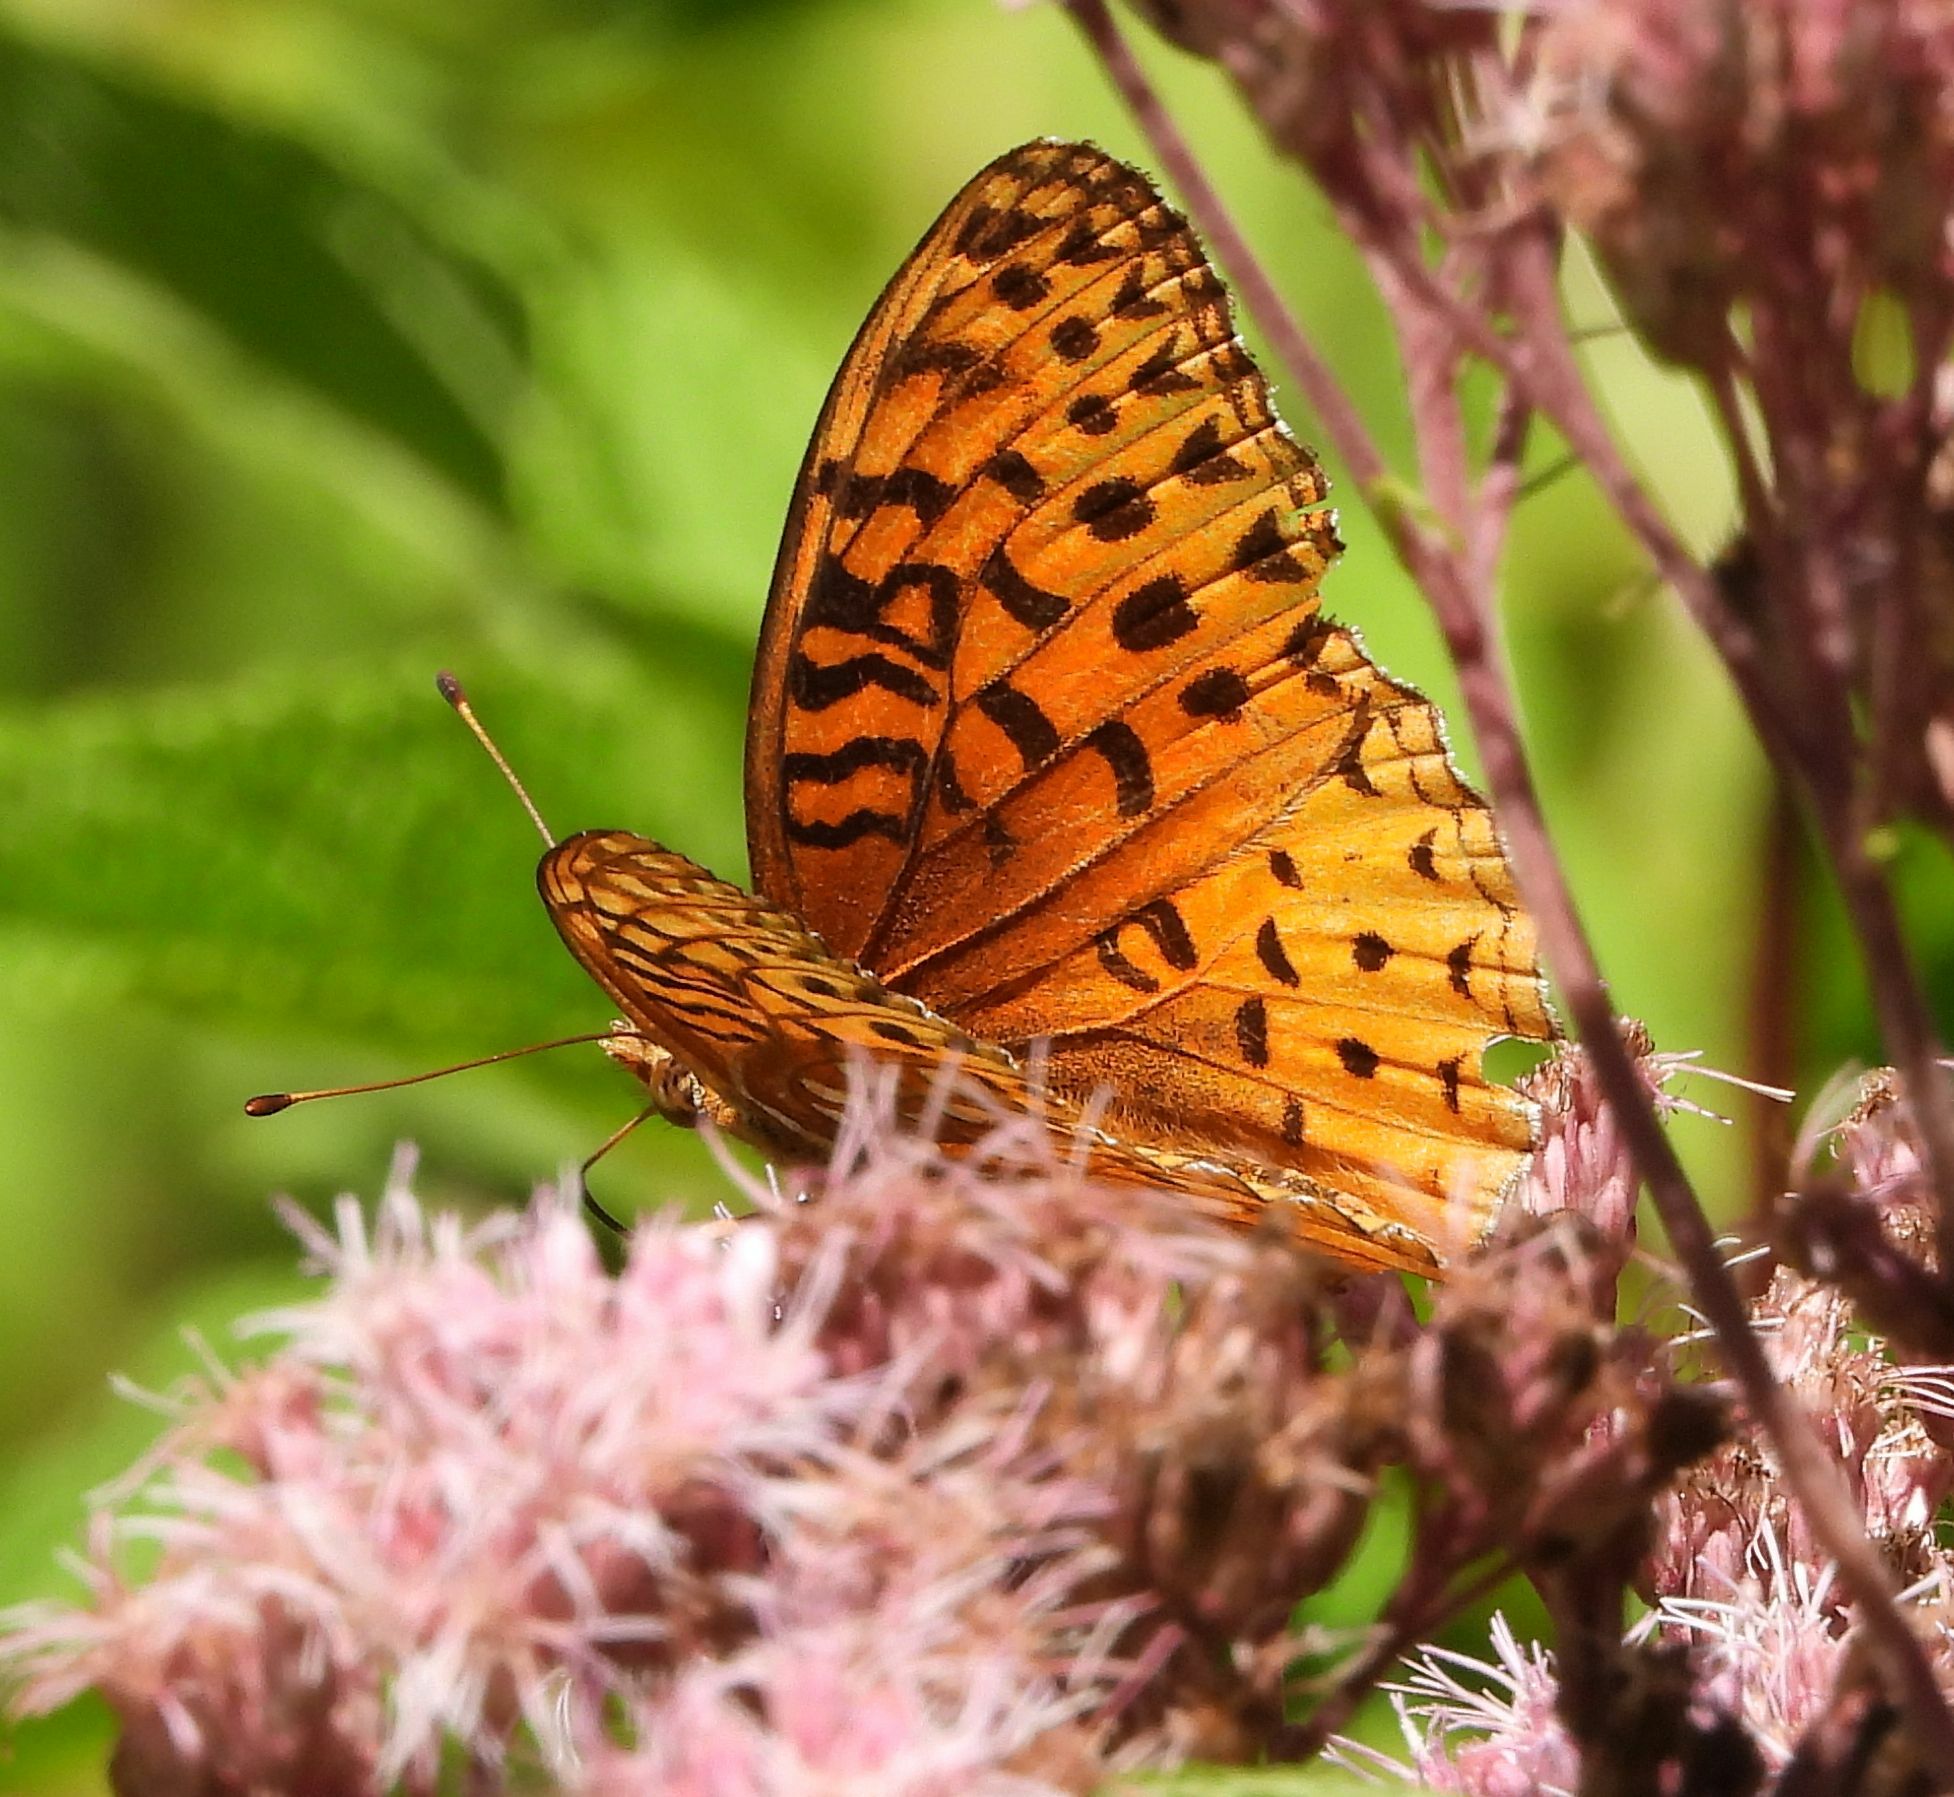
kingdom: Animalia
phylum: Arthropoda
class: Insecta
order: Lepidoptera
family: Nymphalidae
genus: Speyeria
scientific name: Speyeria aphrodite
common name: Aphrodite friitllary
